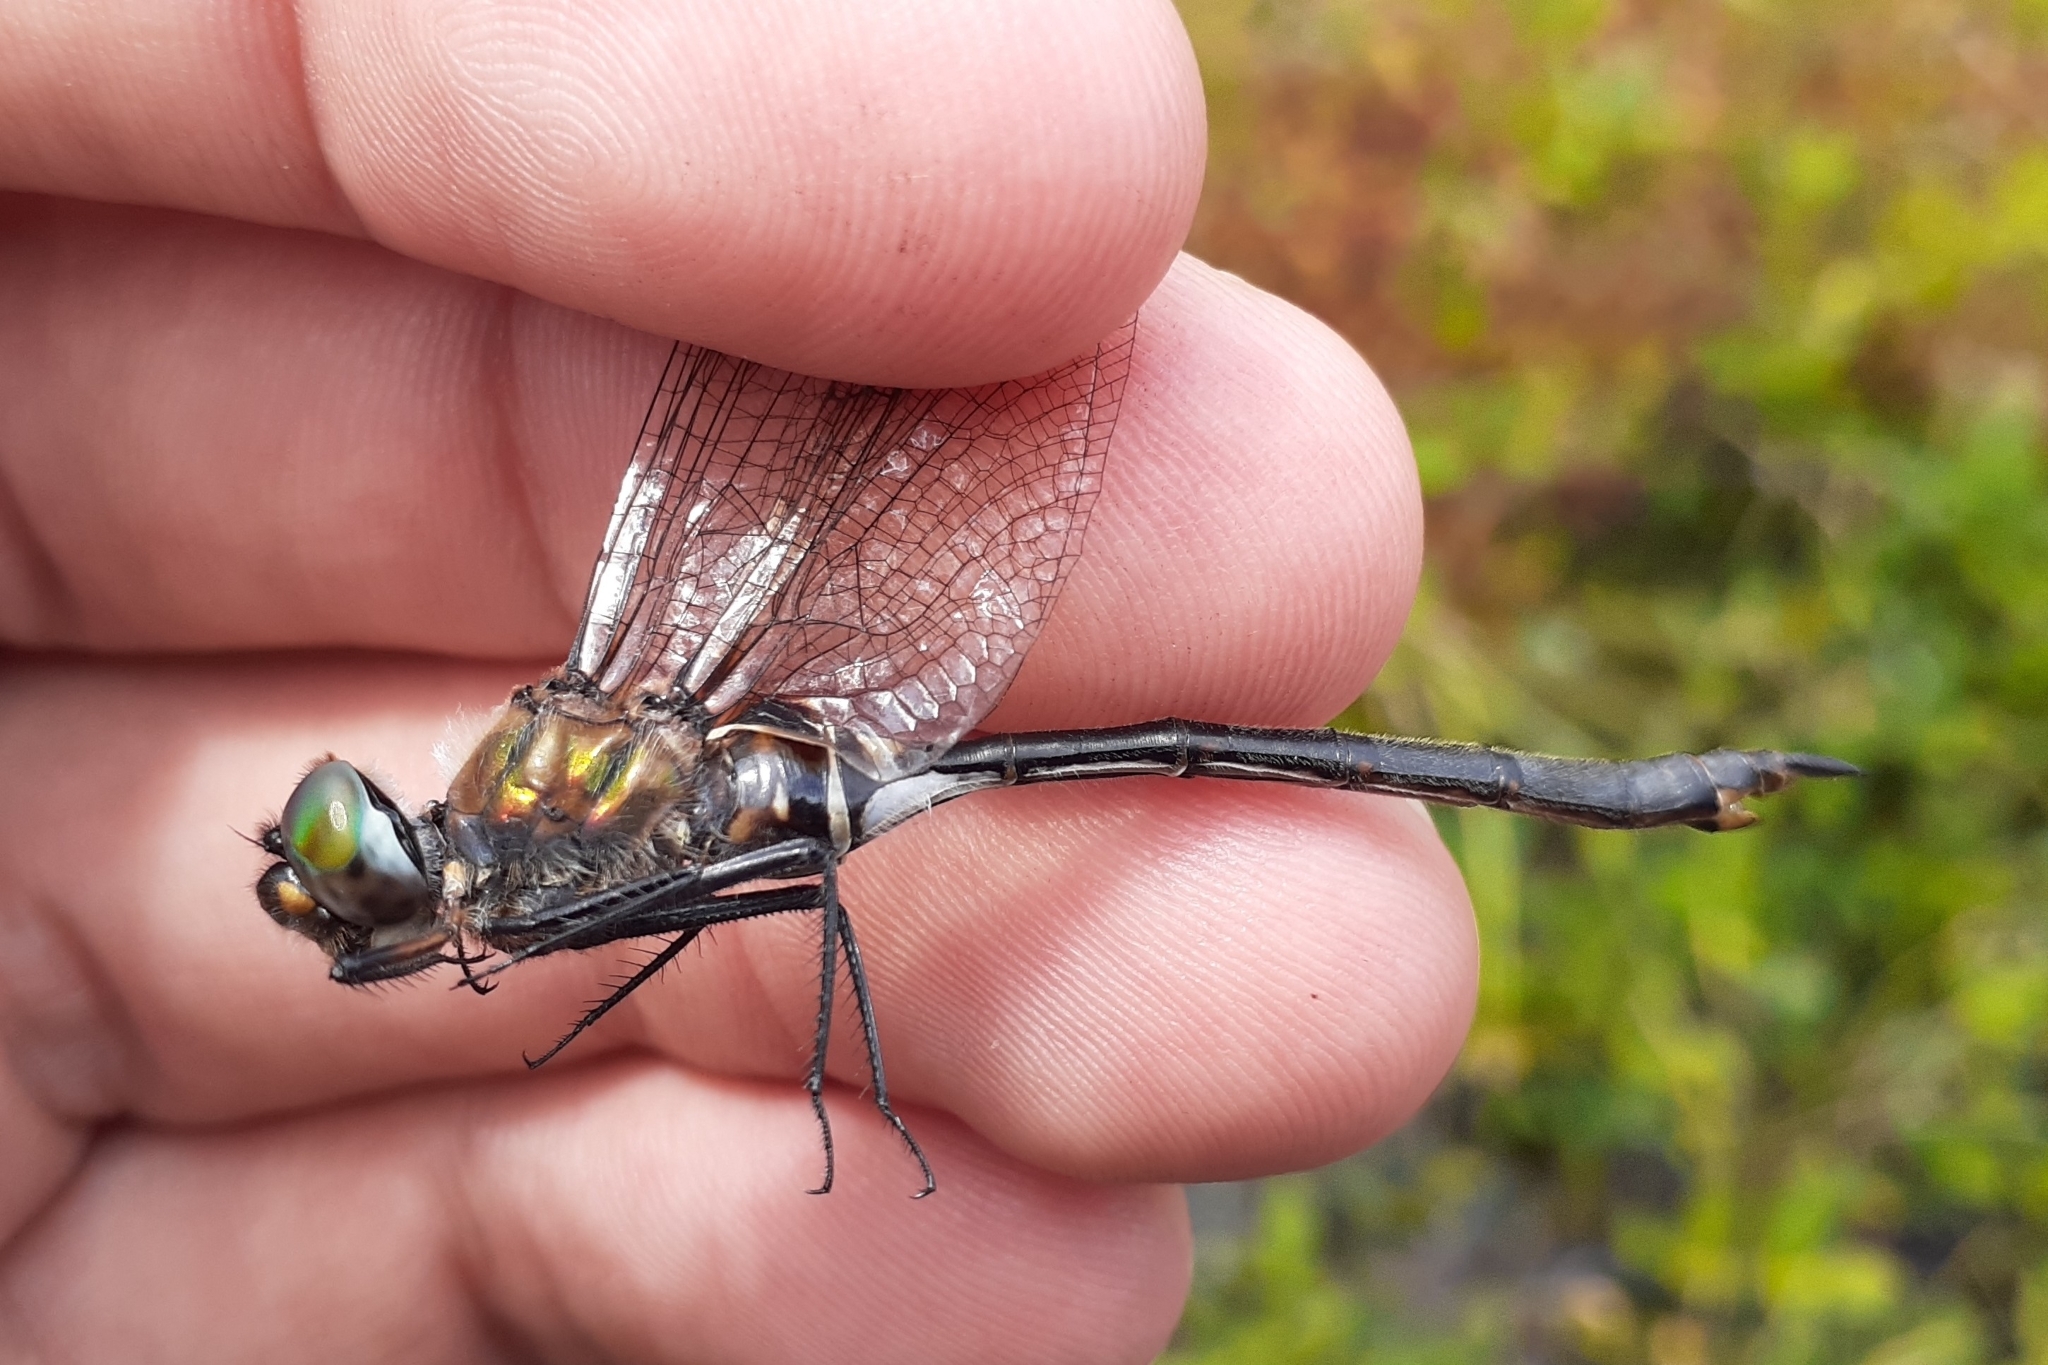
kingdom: Animalia
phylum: Arthropoda
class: Insecta
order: Odonata
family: Corduliidae
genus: Somatochlora
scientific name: Somatochlora franklini
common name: Delicate emerald
